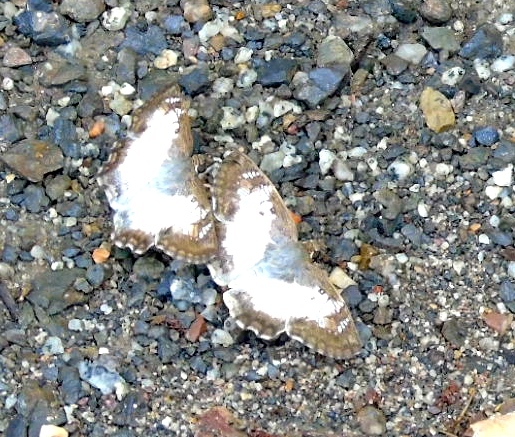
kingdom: Animalia
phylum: Arthropoda
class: Insecta
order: Lepidoptera
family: Hesperiidae
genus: Antigonus
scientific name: Antigonus emorsa
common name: White spurwing
